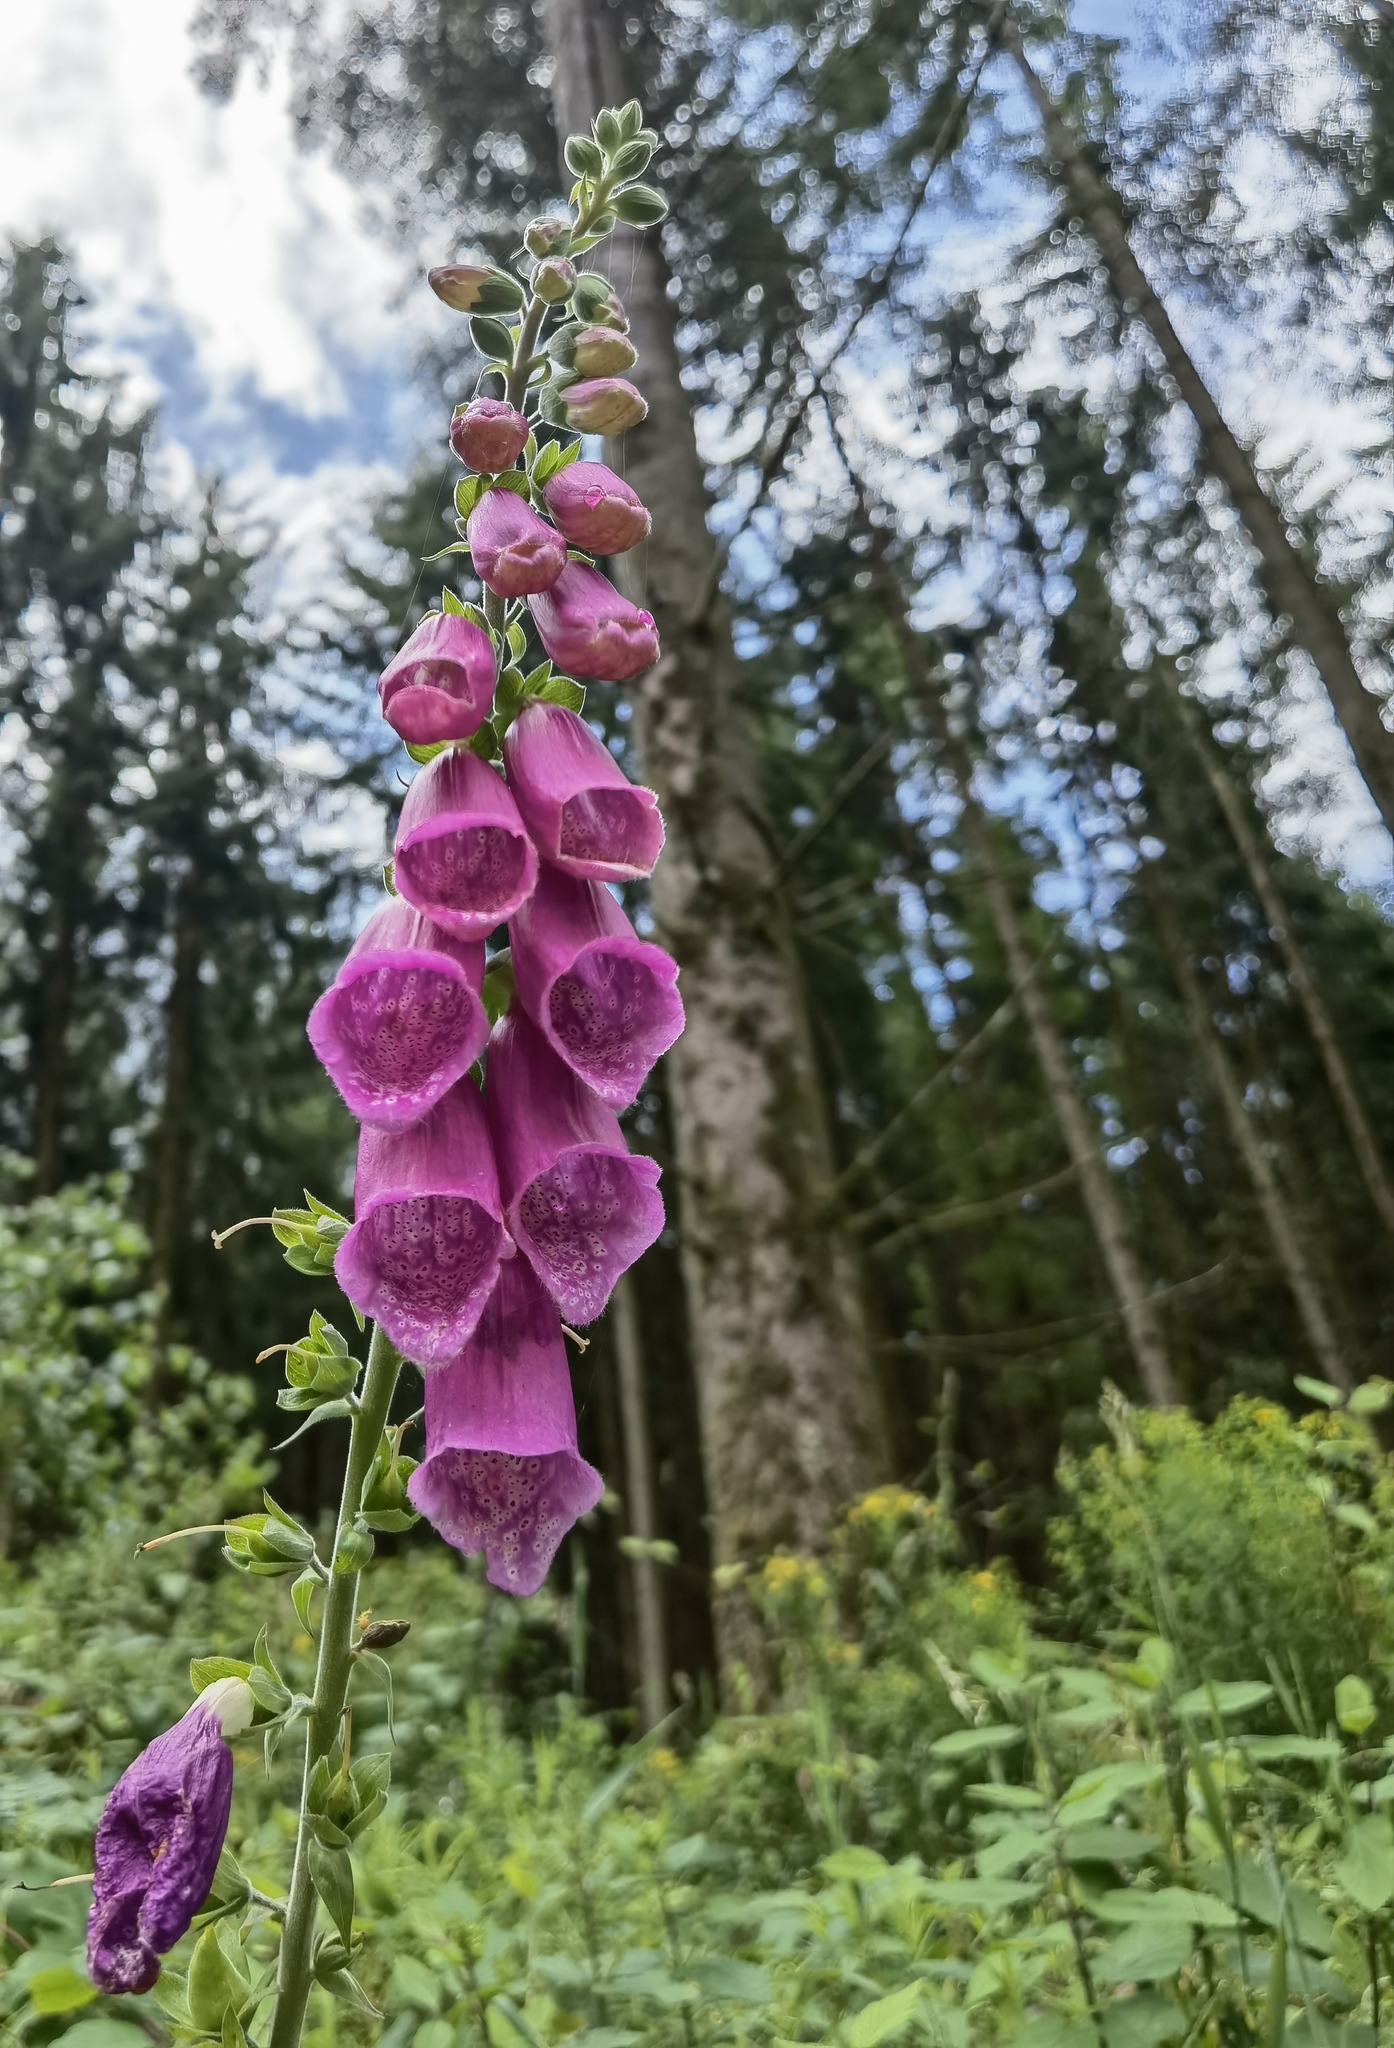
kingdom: Plantae
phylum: Tracheophyta
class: Magnoliopsida
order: Lamiales
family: Plantaginaceae
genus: Digitalis
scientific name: Digitalis purpurea
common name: Foxglove
